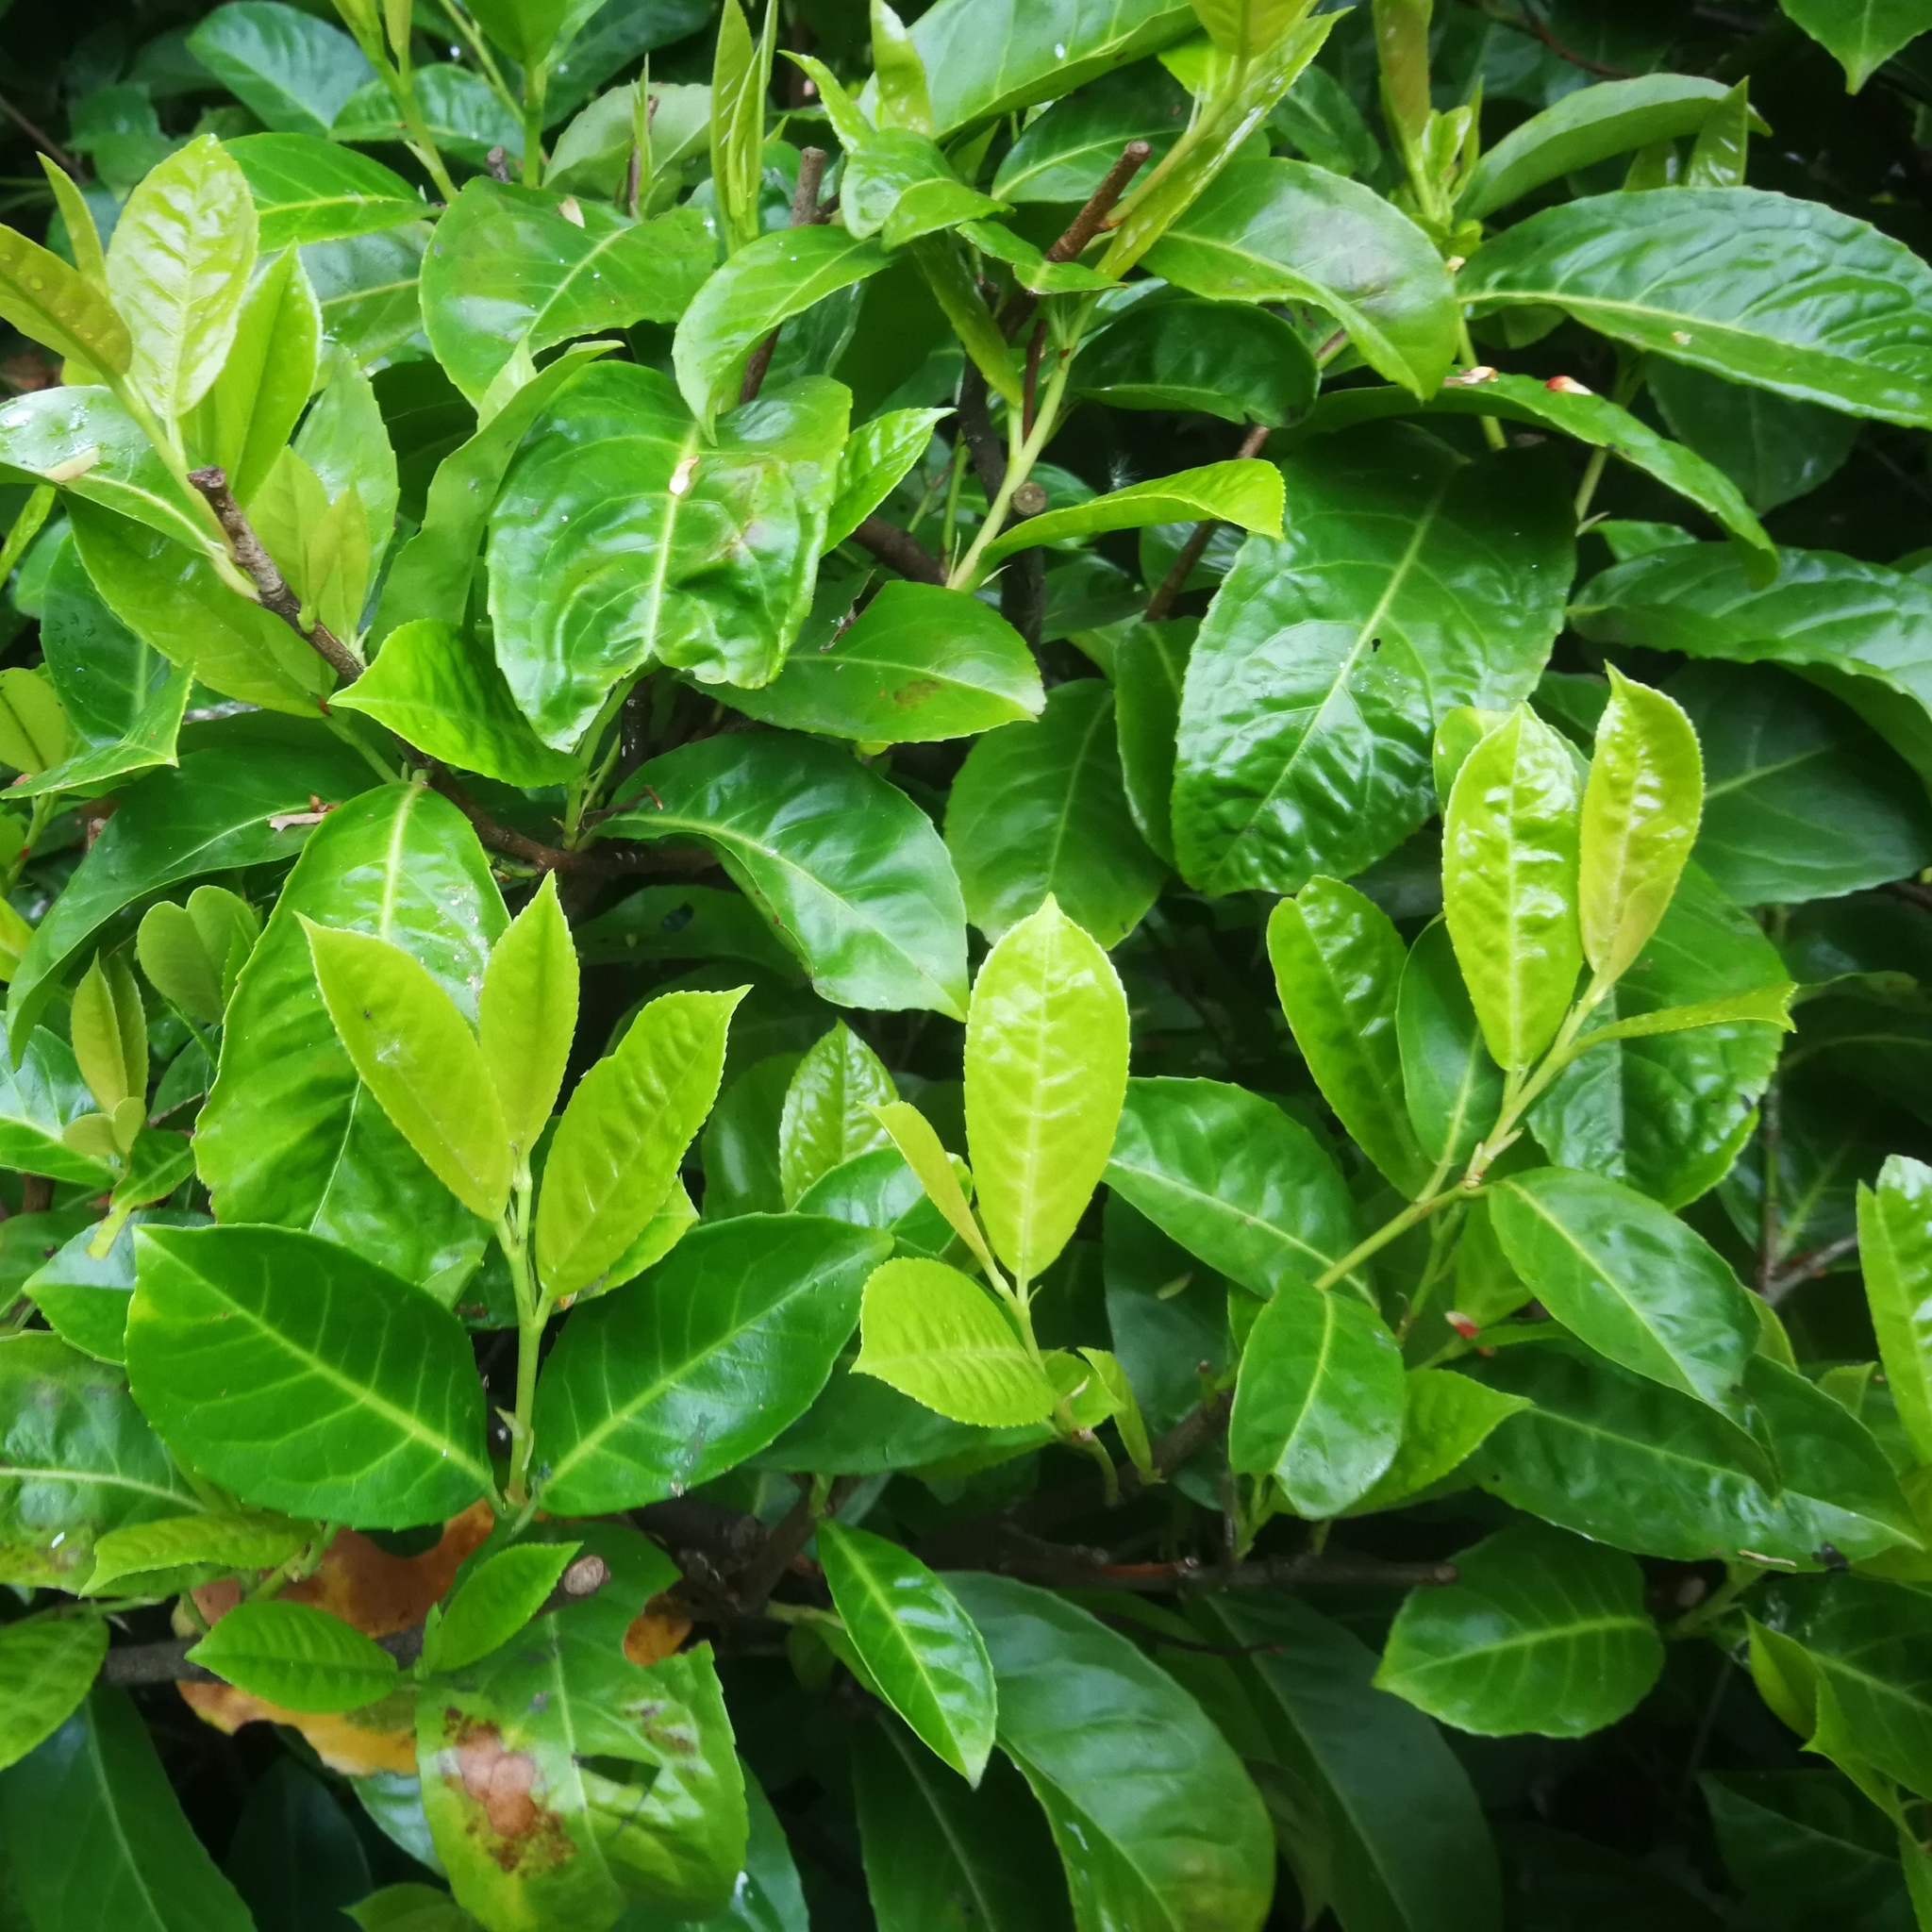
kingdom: Plantae
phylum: Tracheophyta
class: Magnoliopsida
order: Rosales
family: Rosaceae
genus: Prunus
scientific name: Prunus laurocerasus
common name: Cherry laurel
